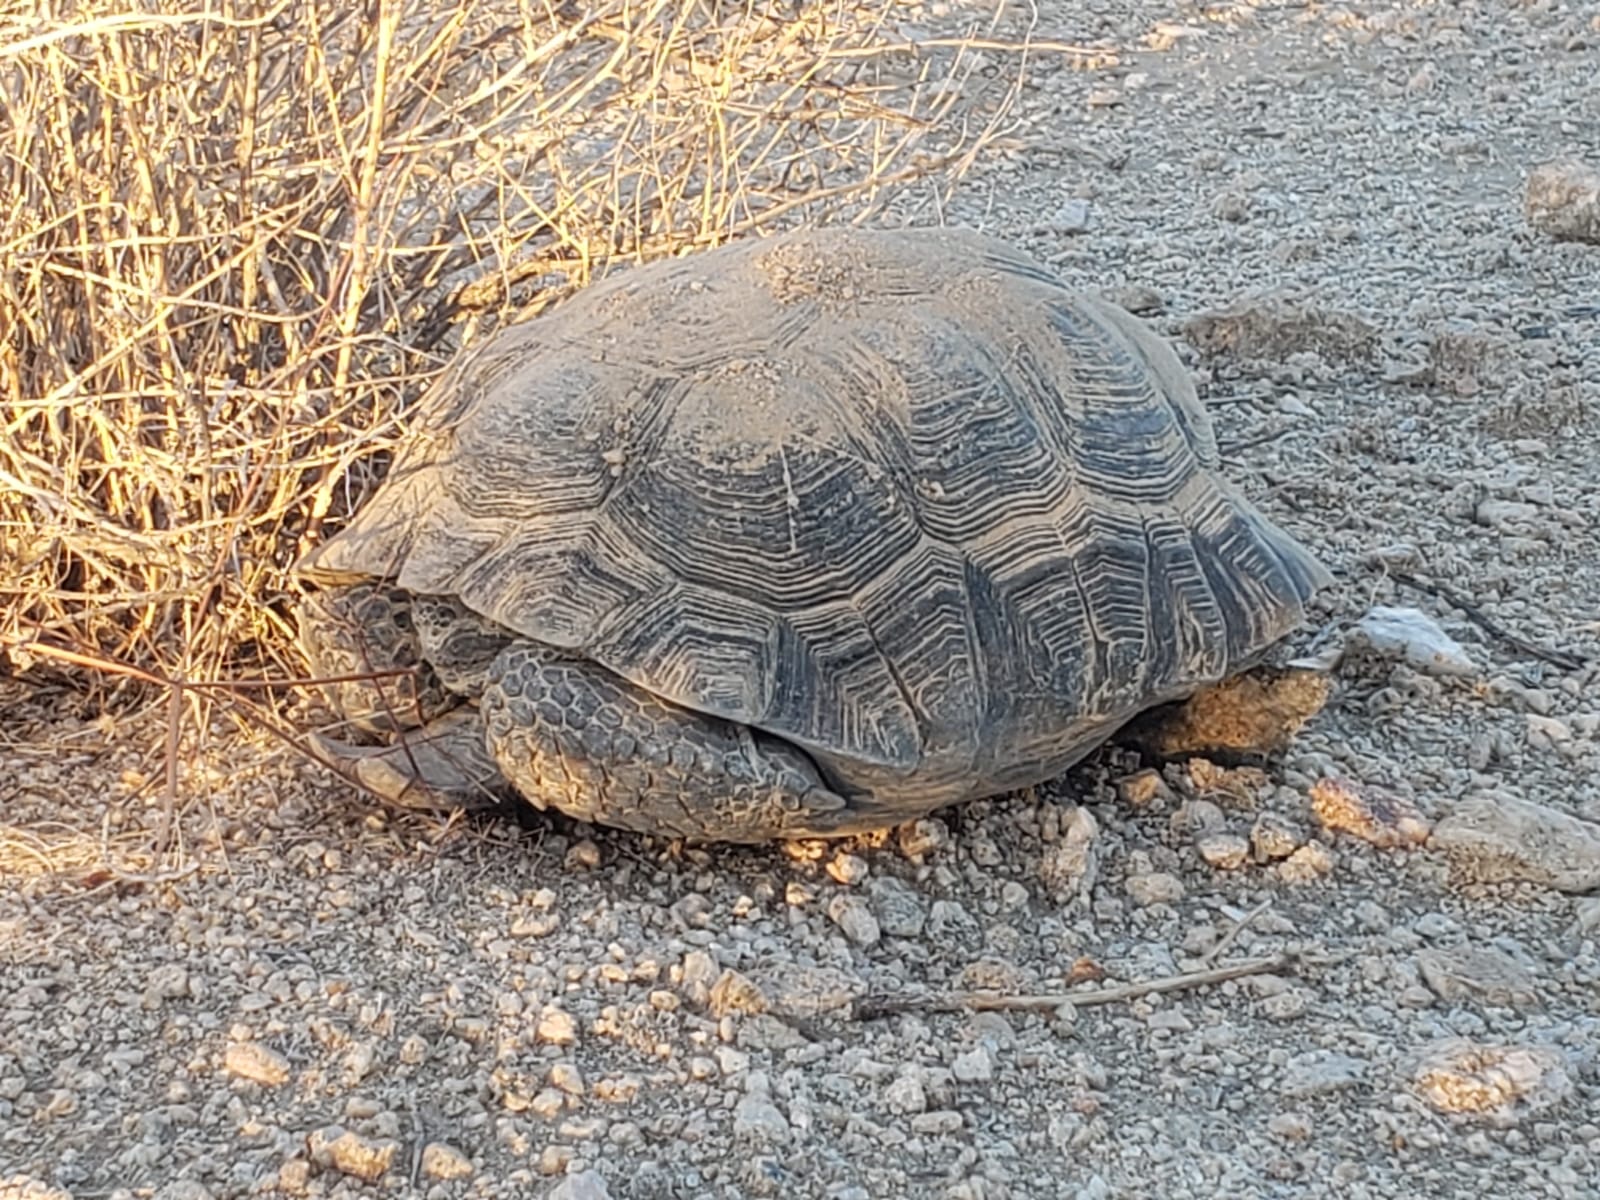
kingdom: Animalia
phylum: Chordata
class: Testudines
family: Testudinidae
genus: Gopherus
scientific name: Gopherus agassizii
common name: Mojave desert tortoise
